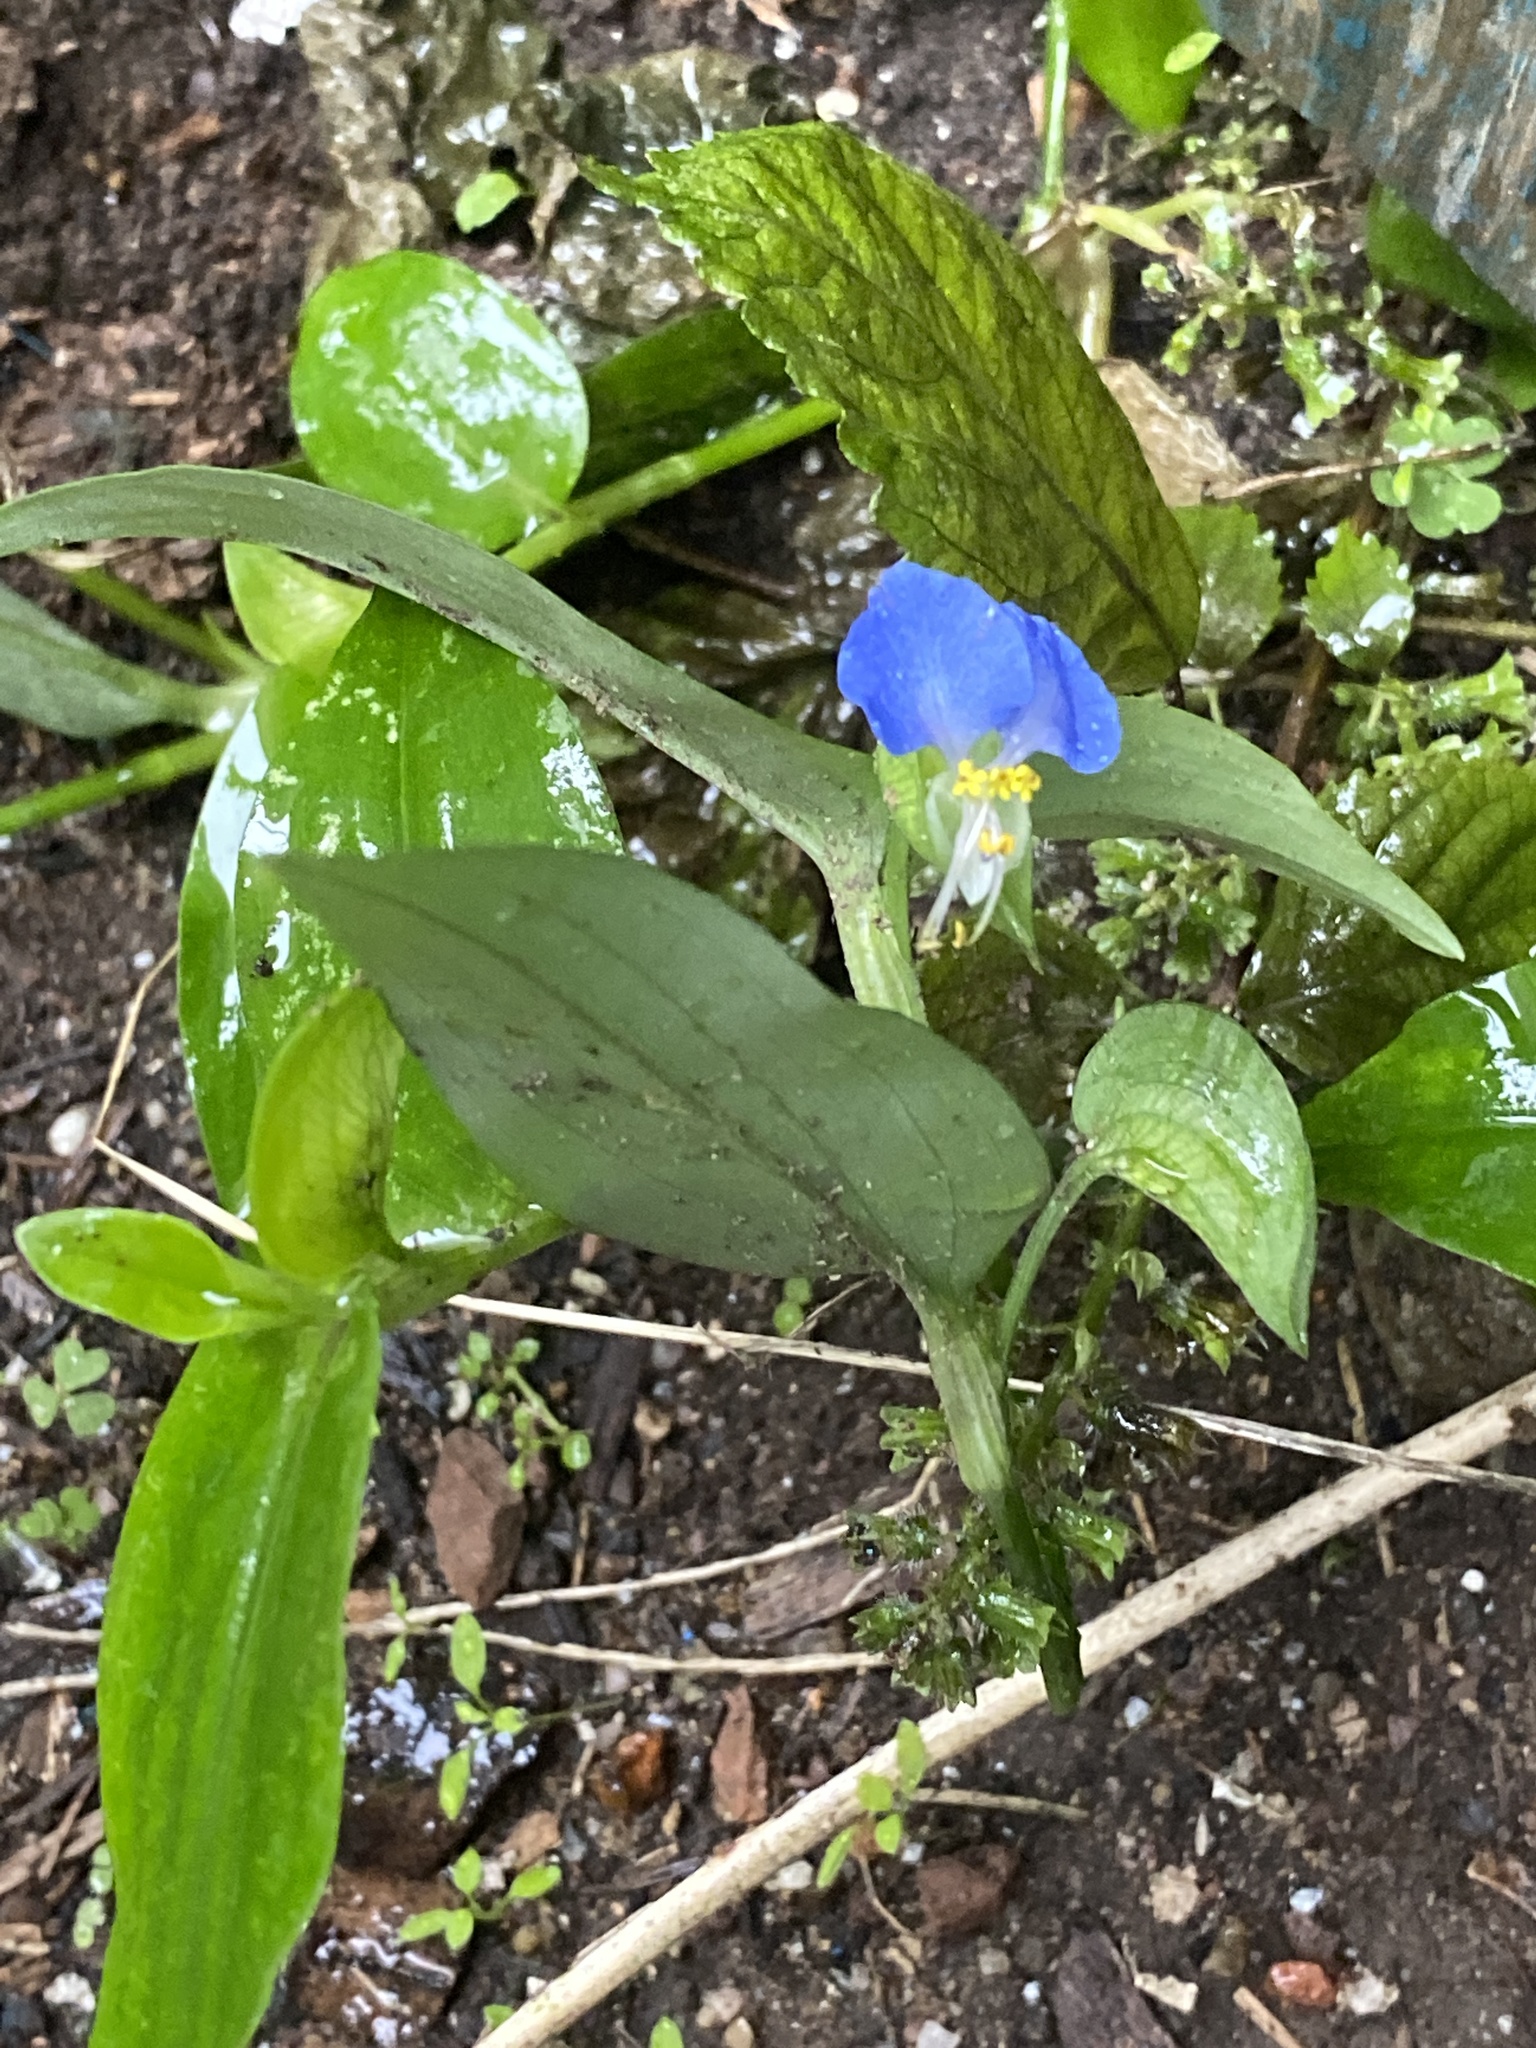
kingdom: Plantae
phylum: Tracheophyta
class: Liliopsida
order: Commelinales
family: Commelinaceae
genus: Commelina
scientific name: Commelina communis
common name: Asiatic dayflower
